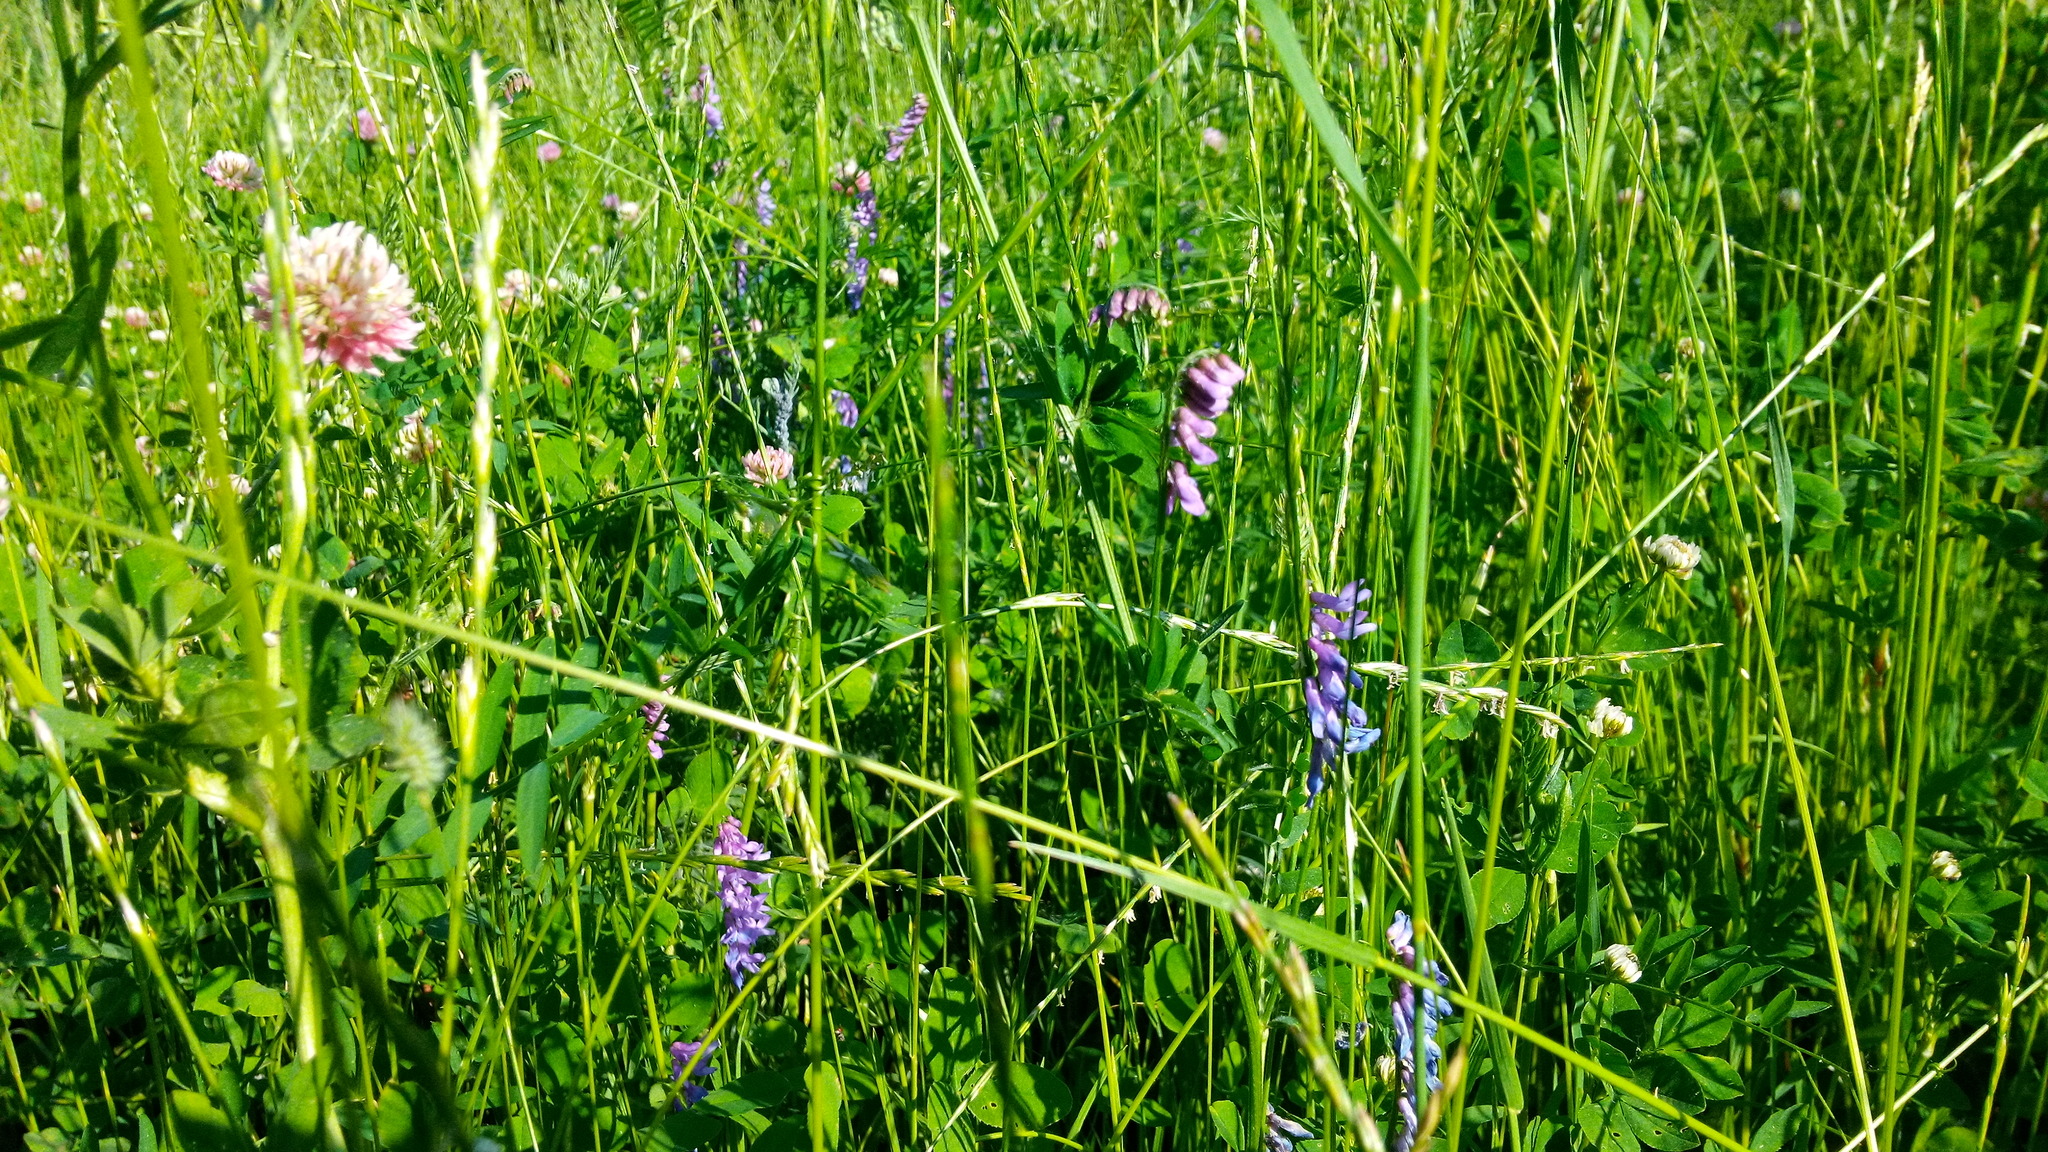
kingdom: Plantae
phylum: Tracheophyta
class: Magnoliopsida
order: Fabales
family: Fabaceae
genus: Vicia
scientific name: Vicia cracca
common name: Bird vetch
